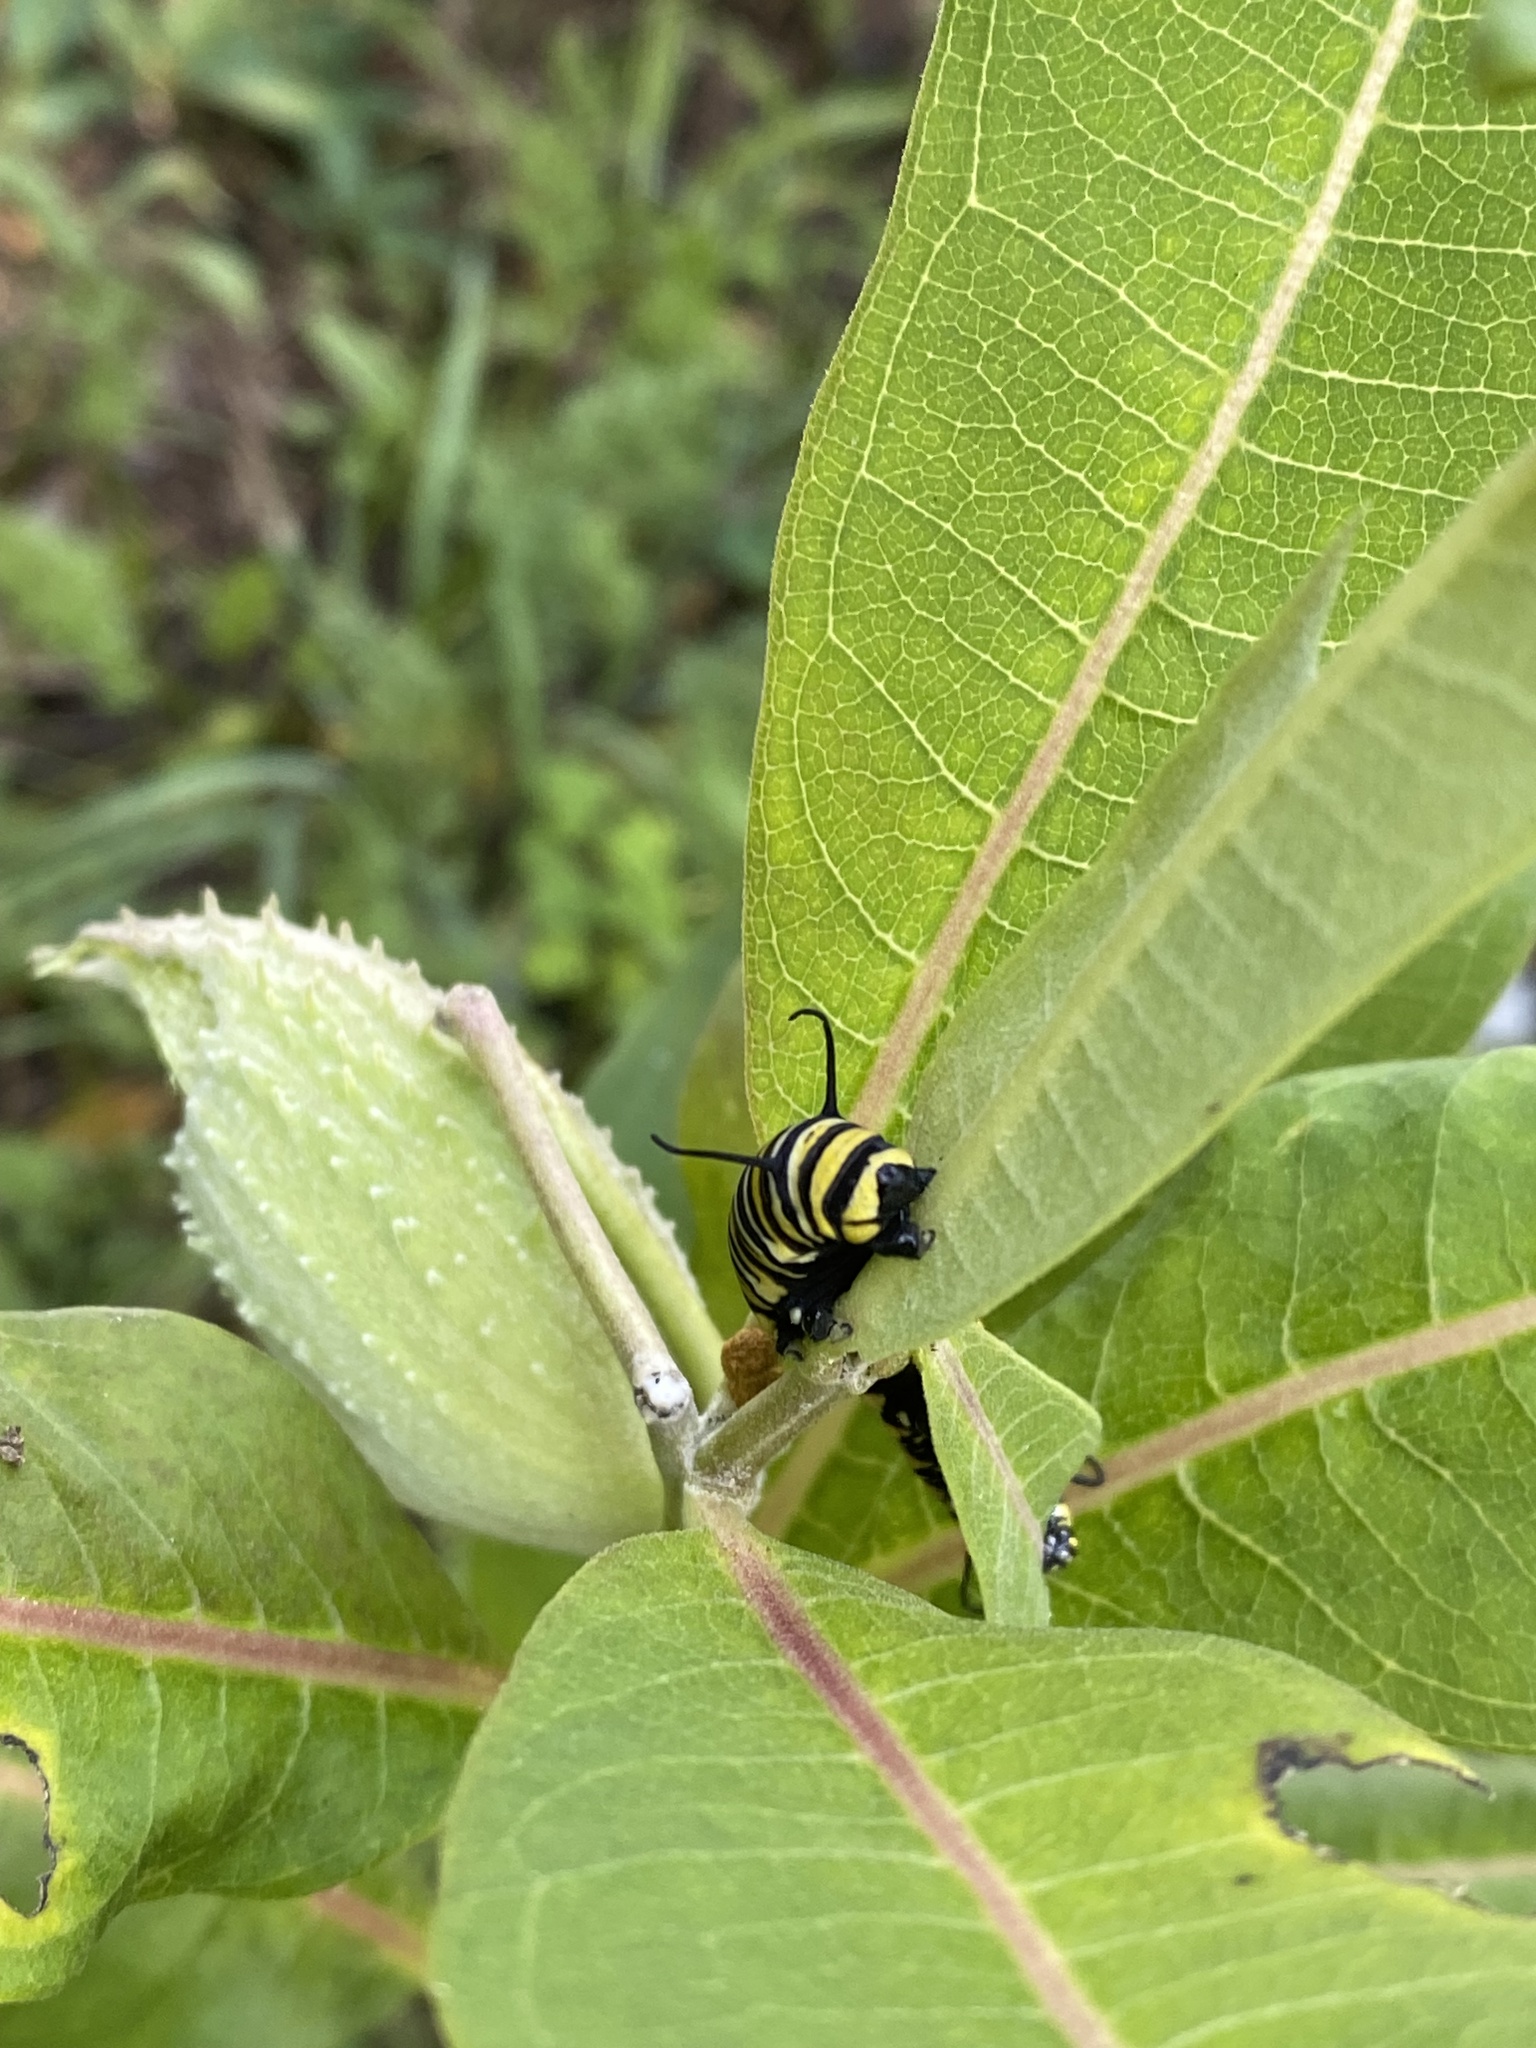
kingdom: Animalia
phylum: Arthropoda
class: Insecta
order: Lepidoptera
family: Nymphalidae
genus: Danaus
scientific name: Danaus plexippus
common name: Monarch
